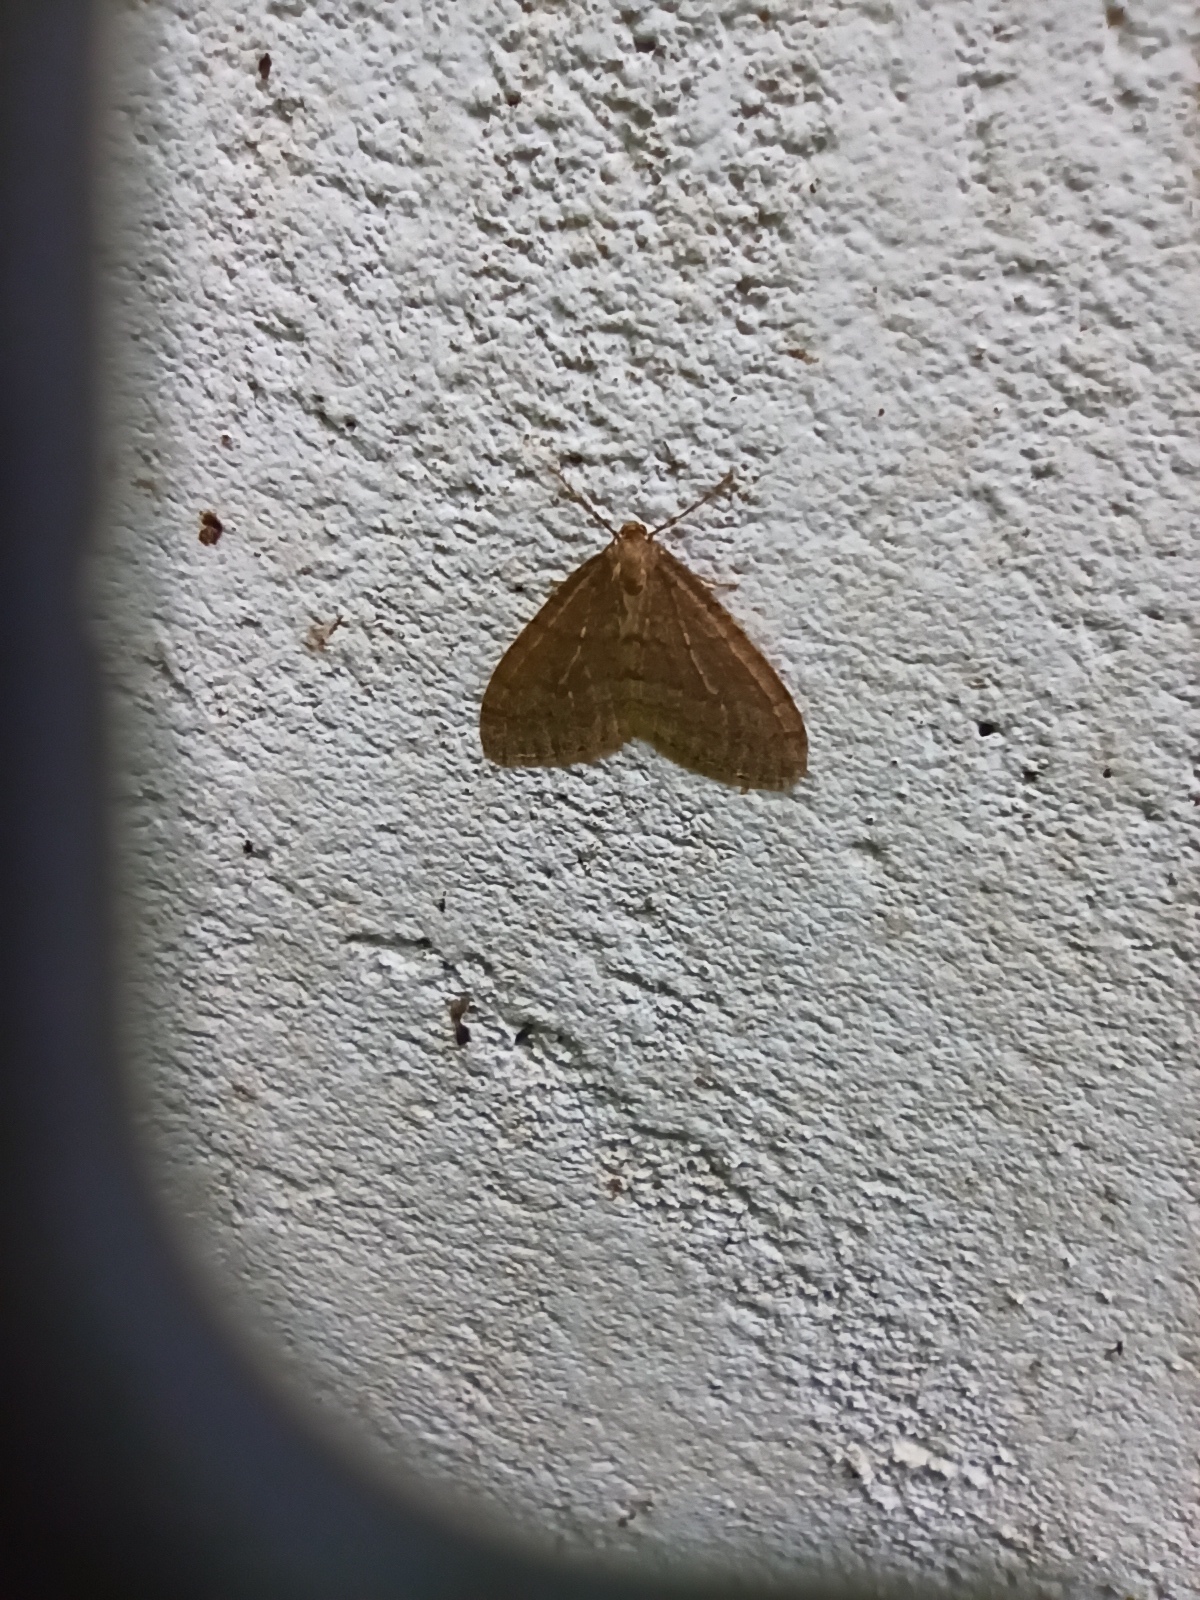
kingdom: Animalia
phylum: Arthropoda
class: Insecta
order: Lepidoptera
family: Geometridae
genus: Operophtera
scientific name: Operophtera brumata
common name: Winter moth
